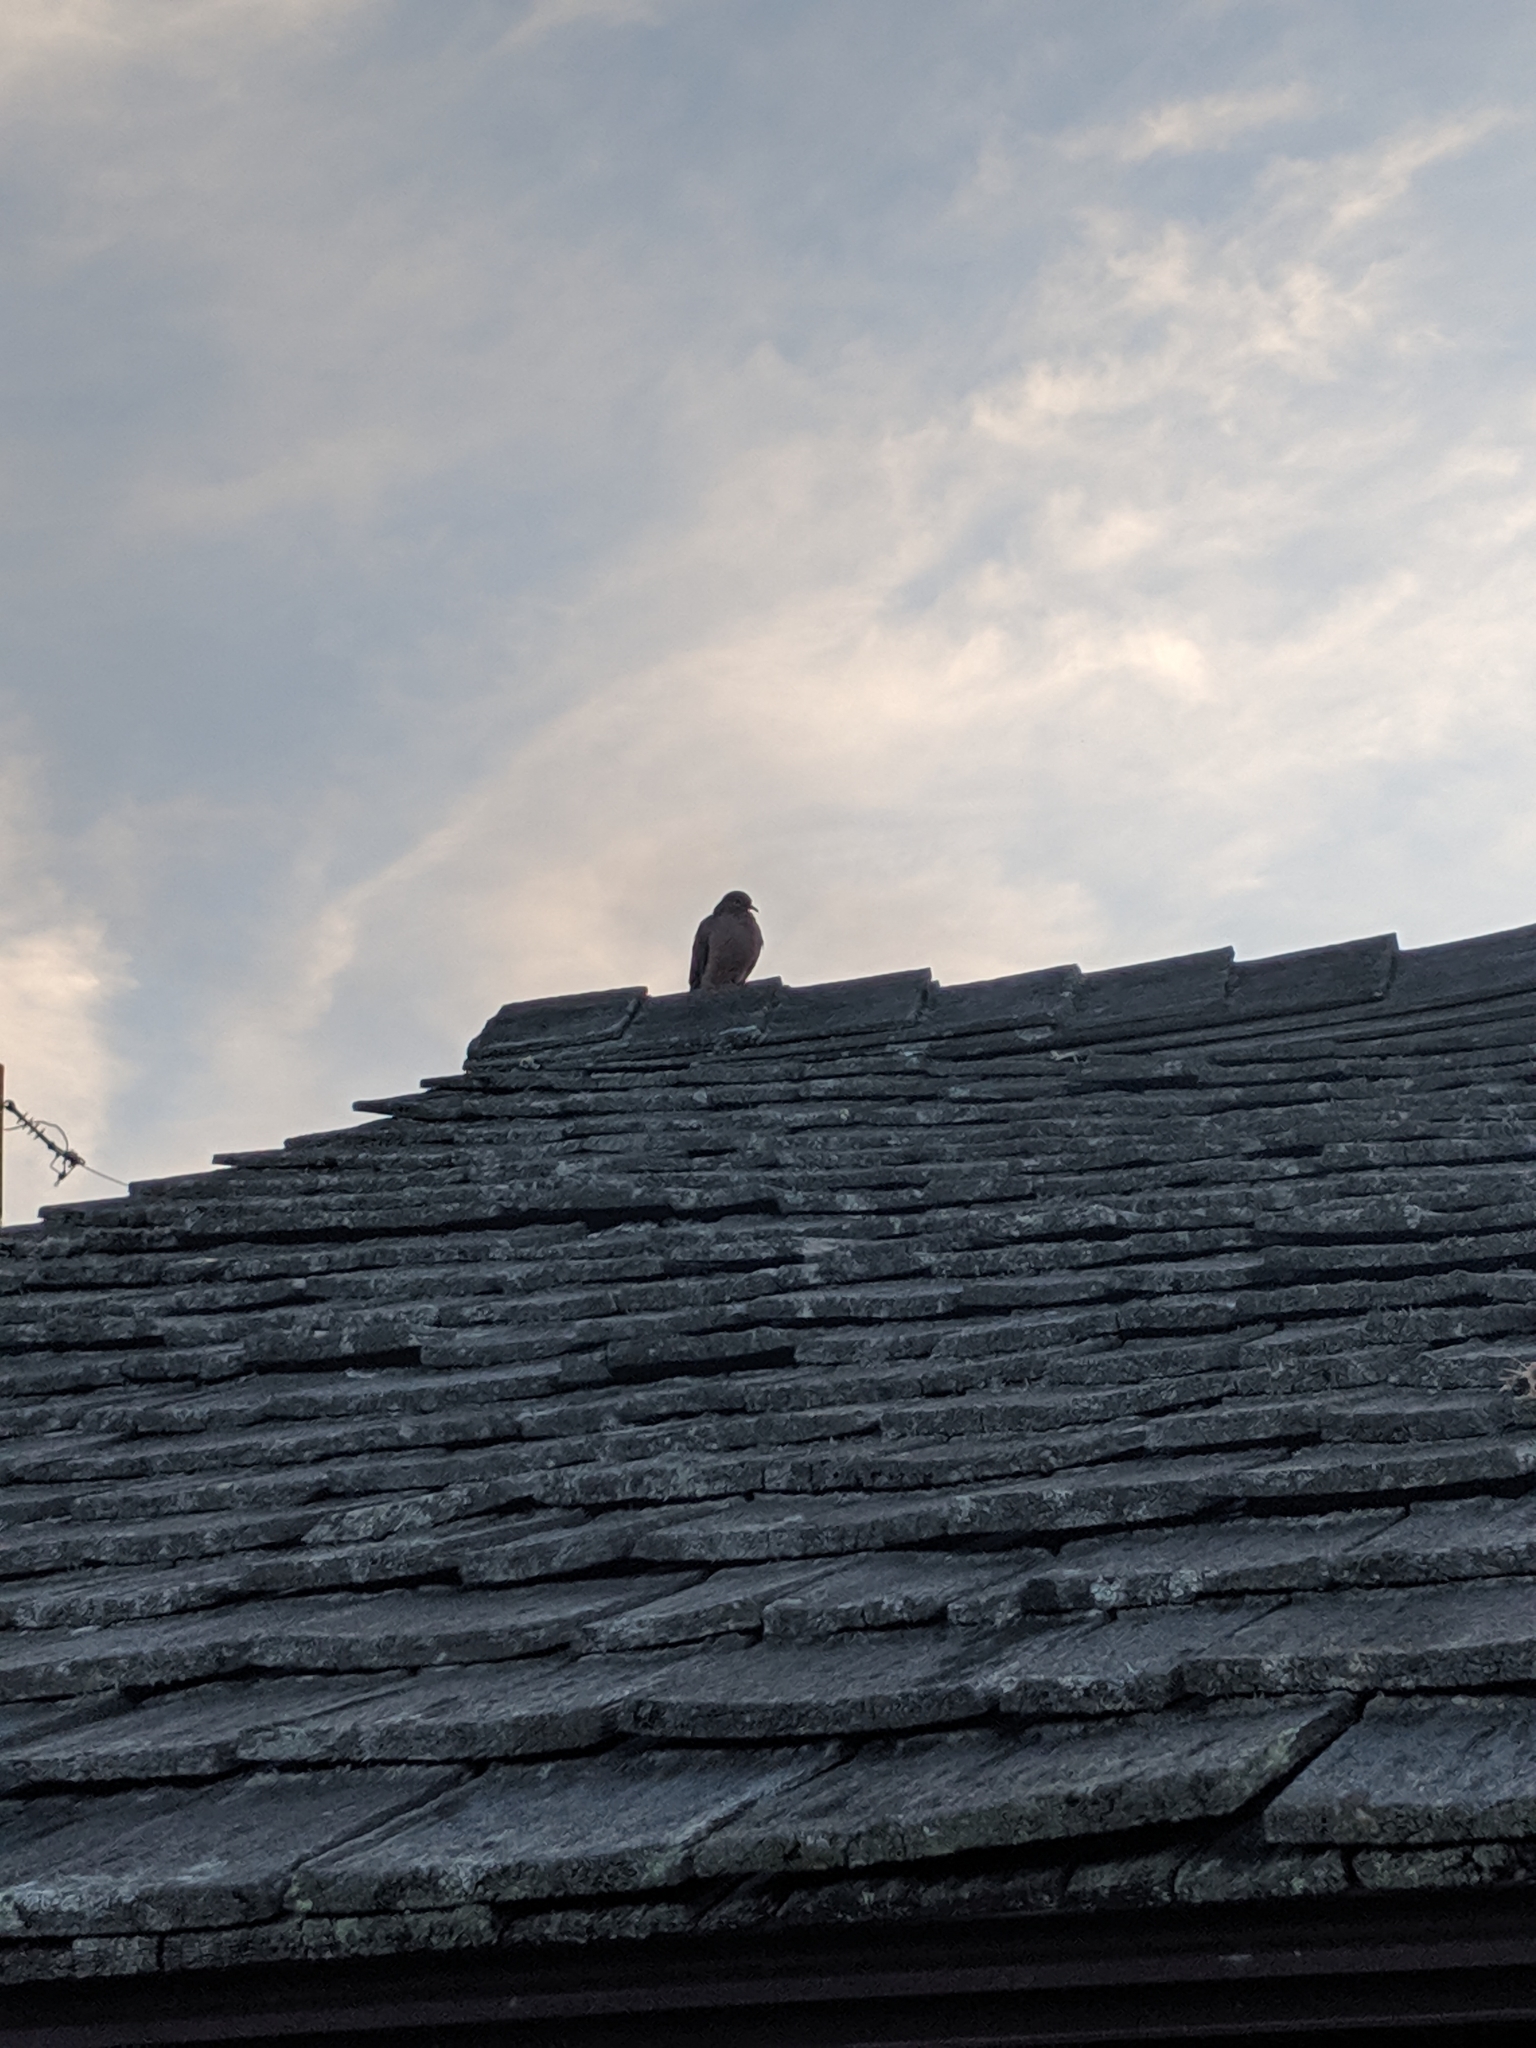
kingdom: Animalia
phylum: Chordata
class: Aves
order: Columbiformes
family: Columbidae
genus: Zenaida
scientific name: Zenaida macroura
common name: Mourning dove
